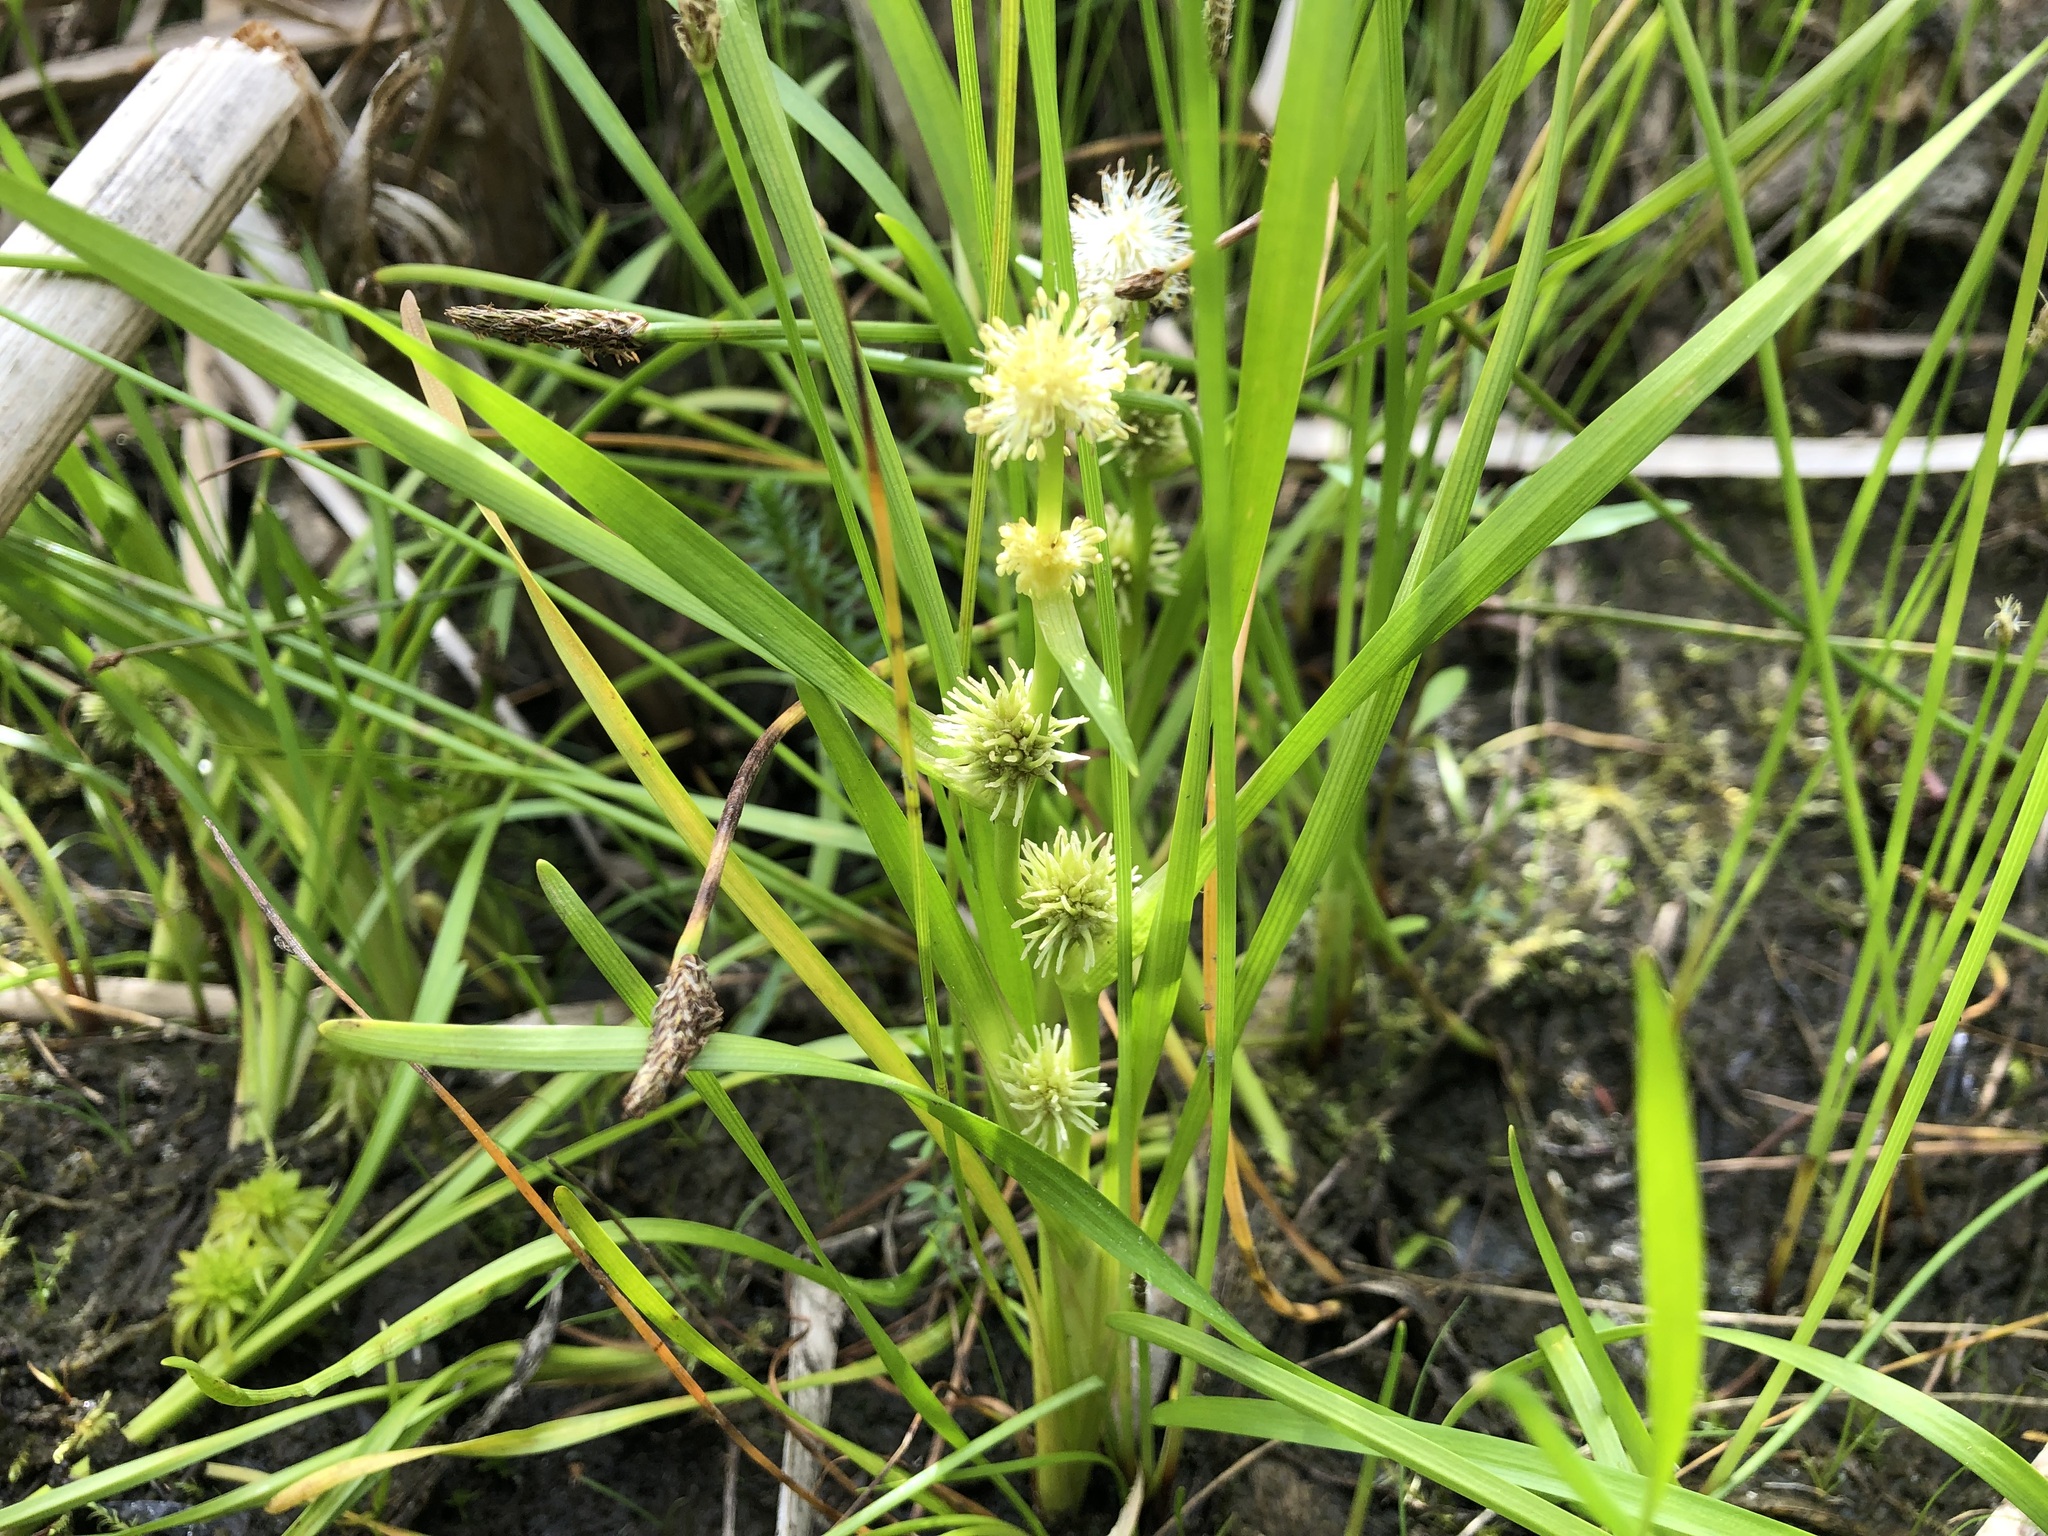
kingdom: Plantae
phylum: Tracheophyta
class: Liliopsida
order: Poales
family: Typhaceae
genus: Sparganium
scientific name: Sparganium angustifolium
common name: Floating bur-reed
